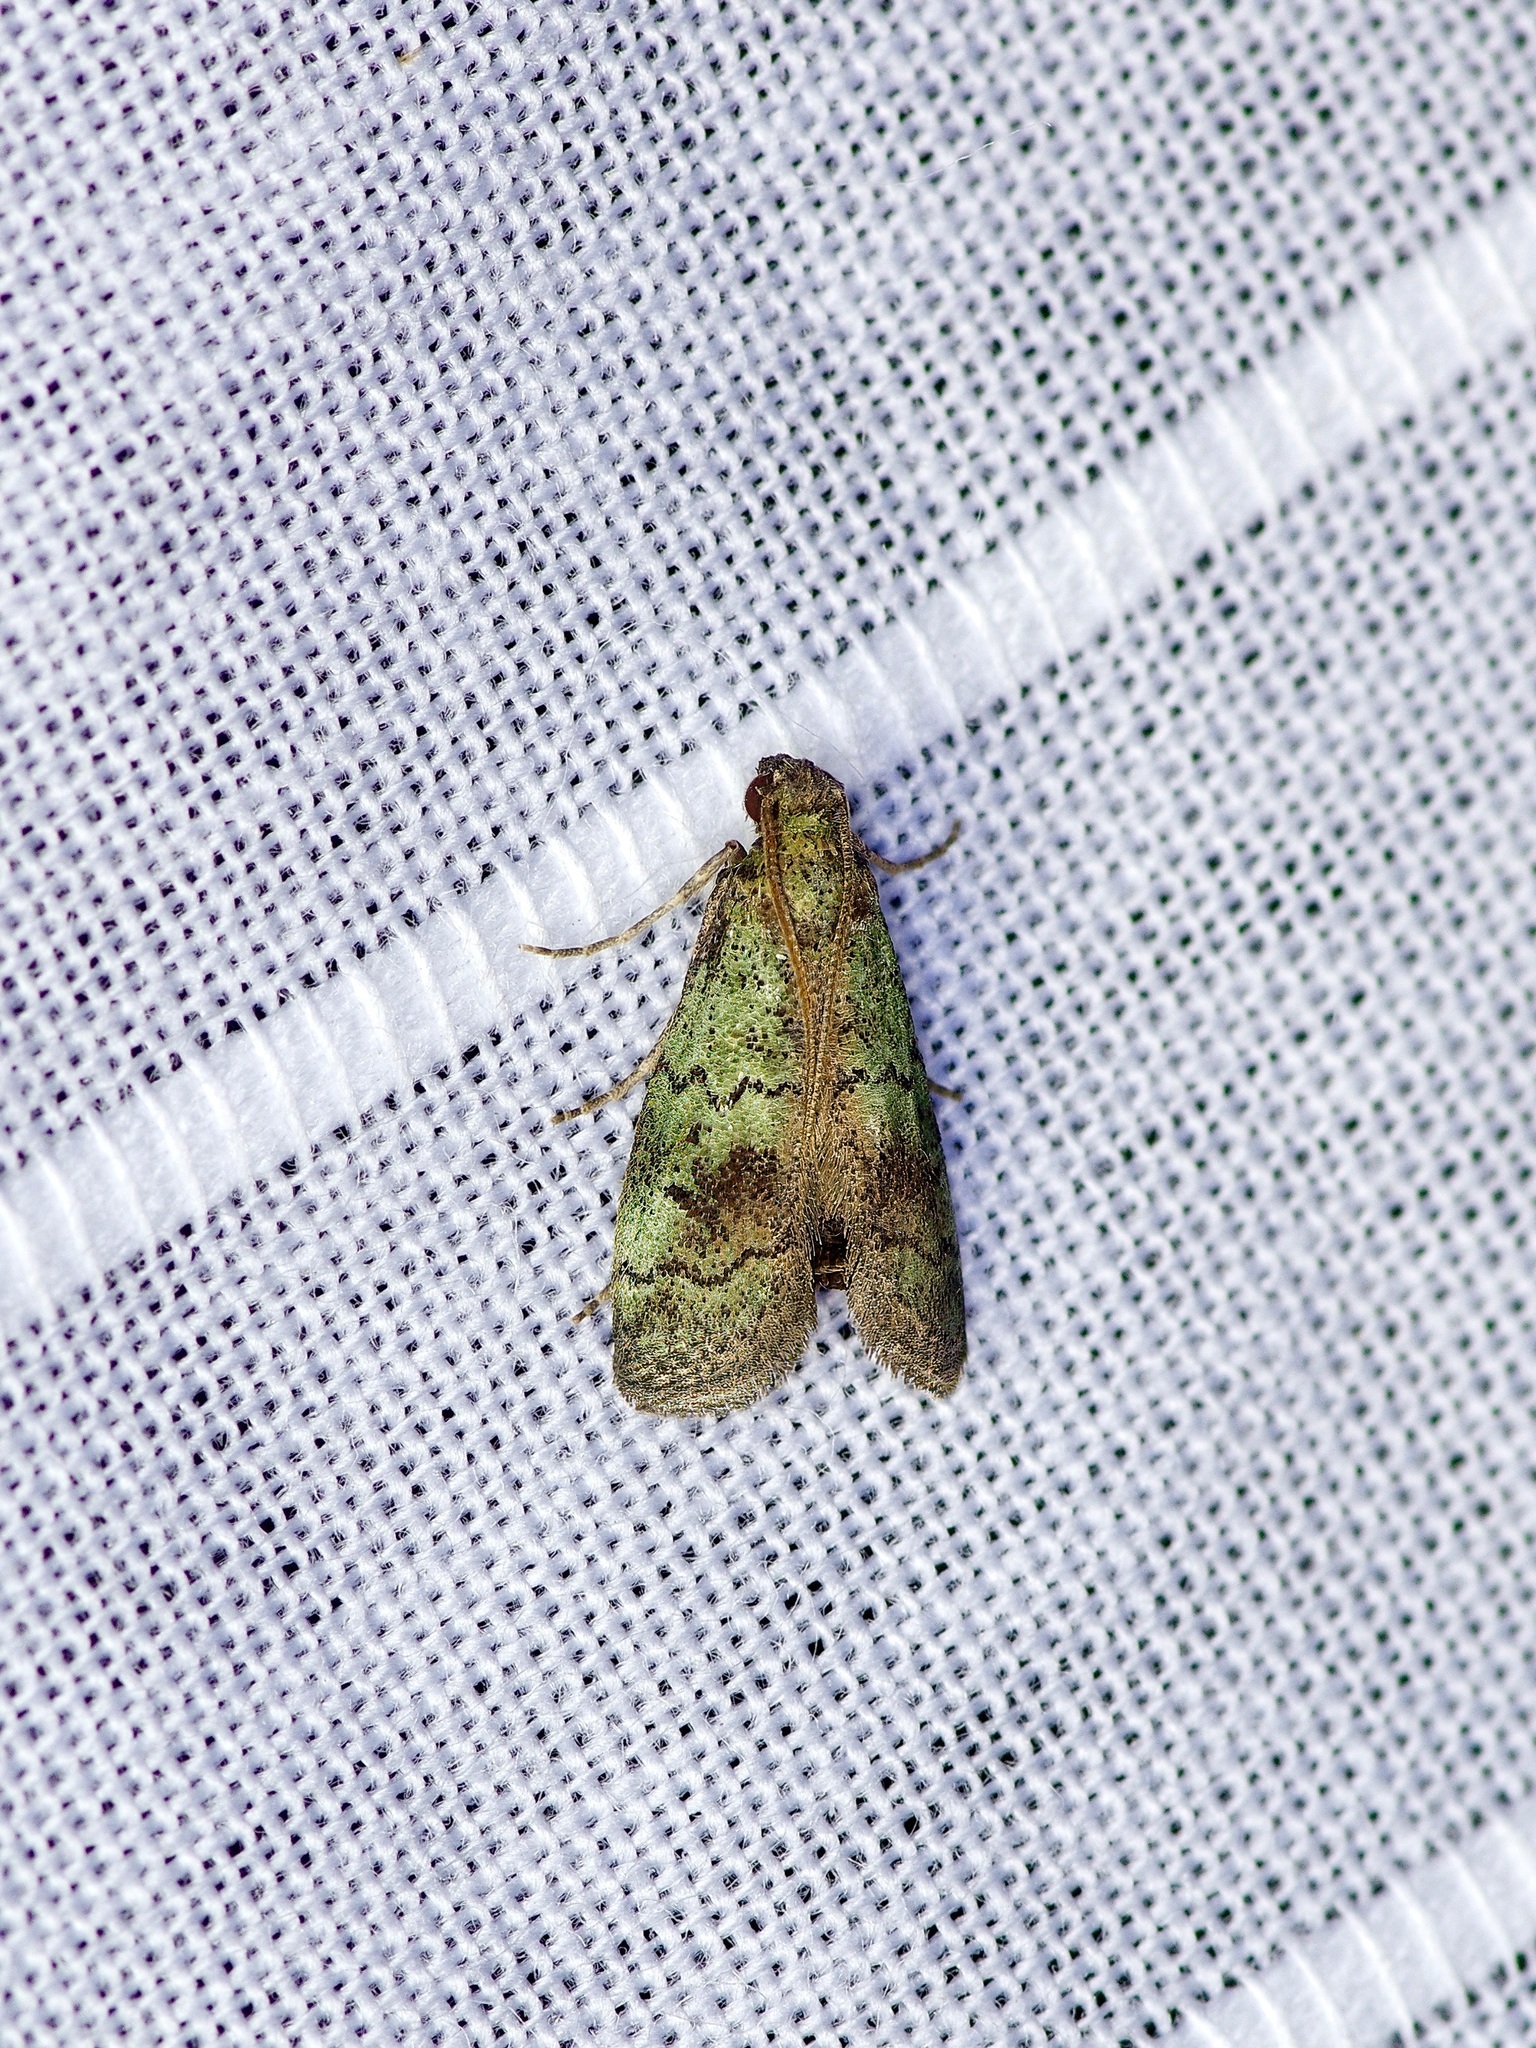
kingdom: Animalia
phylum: Arthropoda
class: Insecta
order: Lepidoptera
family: Pyralidae
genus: Cacotherapia
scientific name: Cacotherapia flexilinealis
